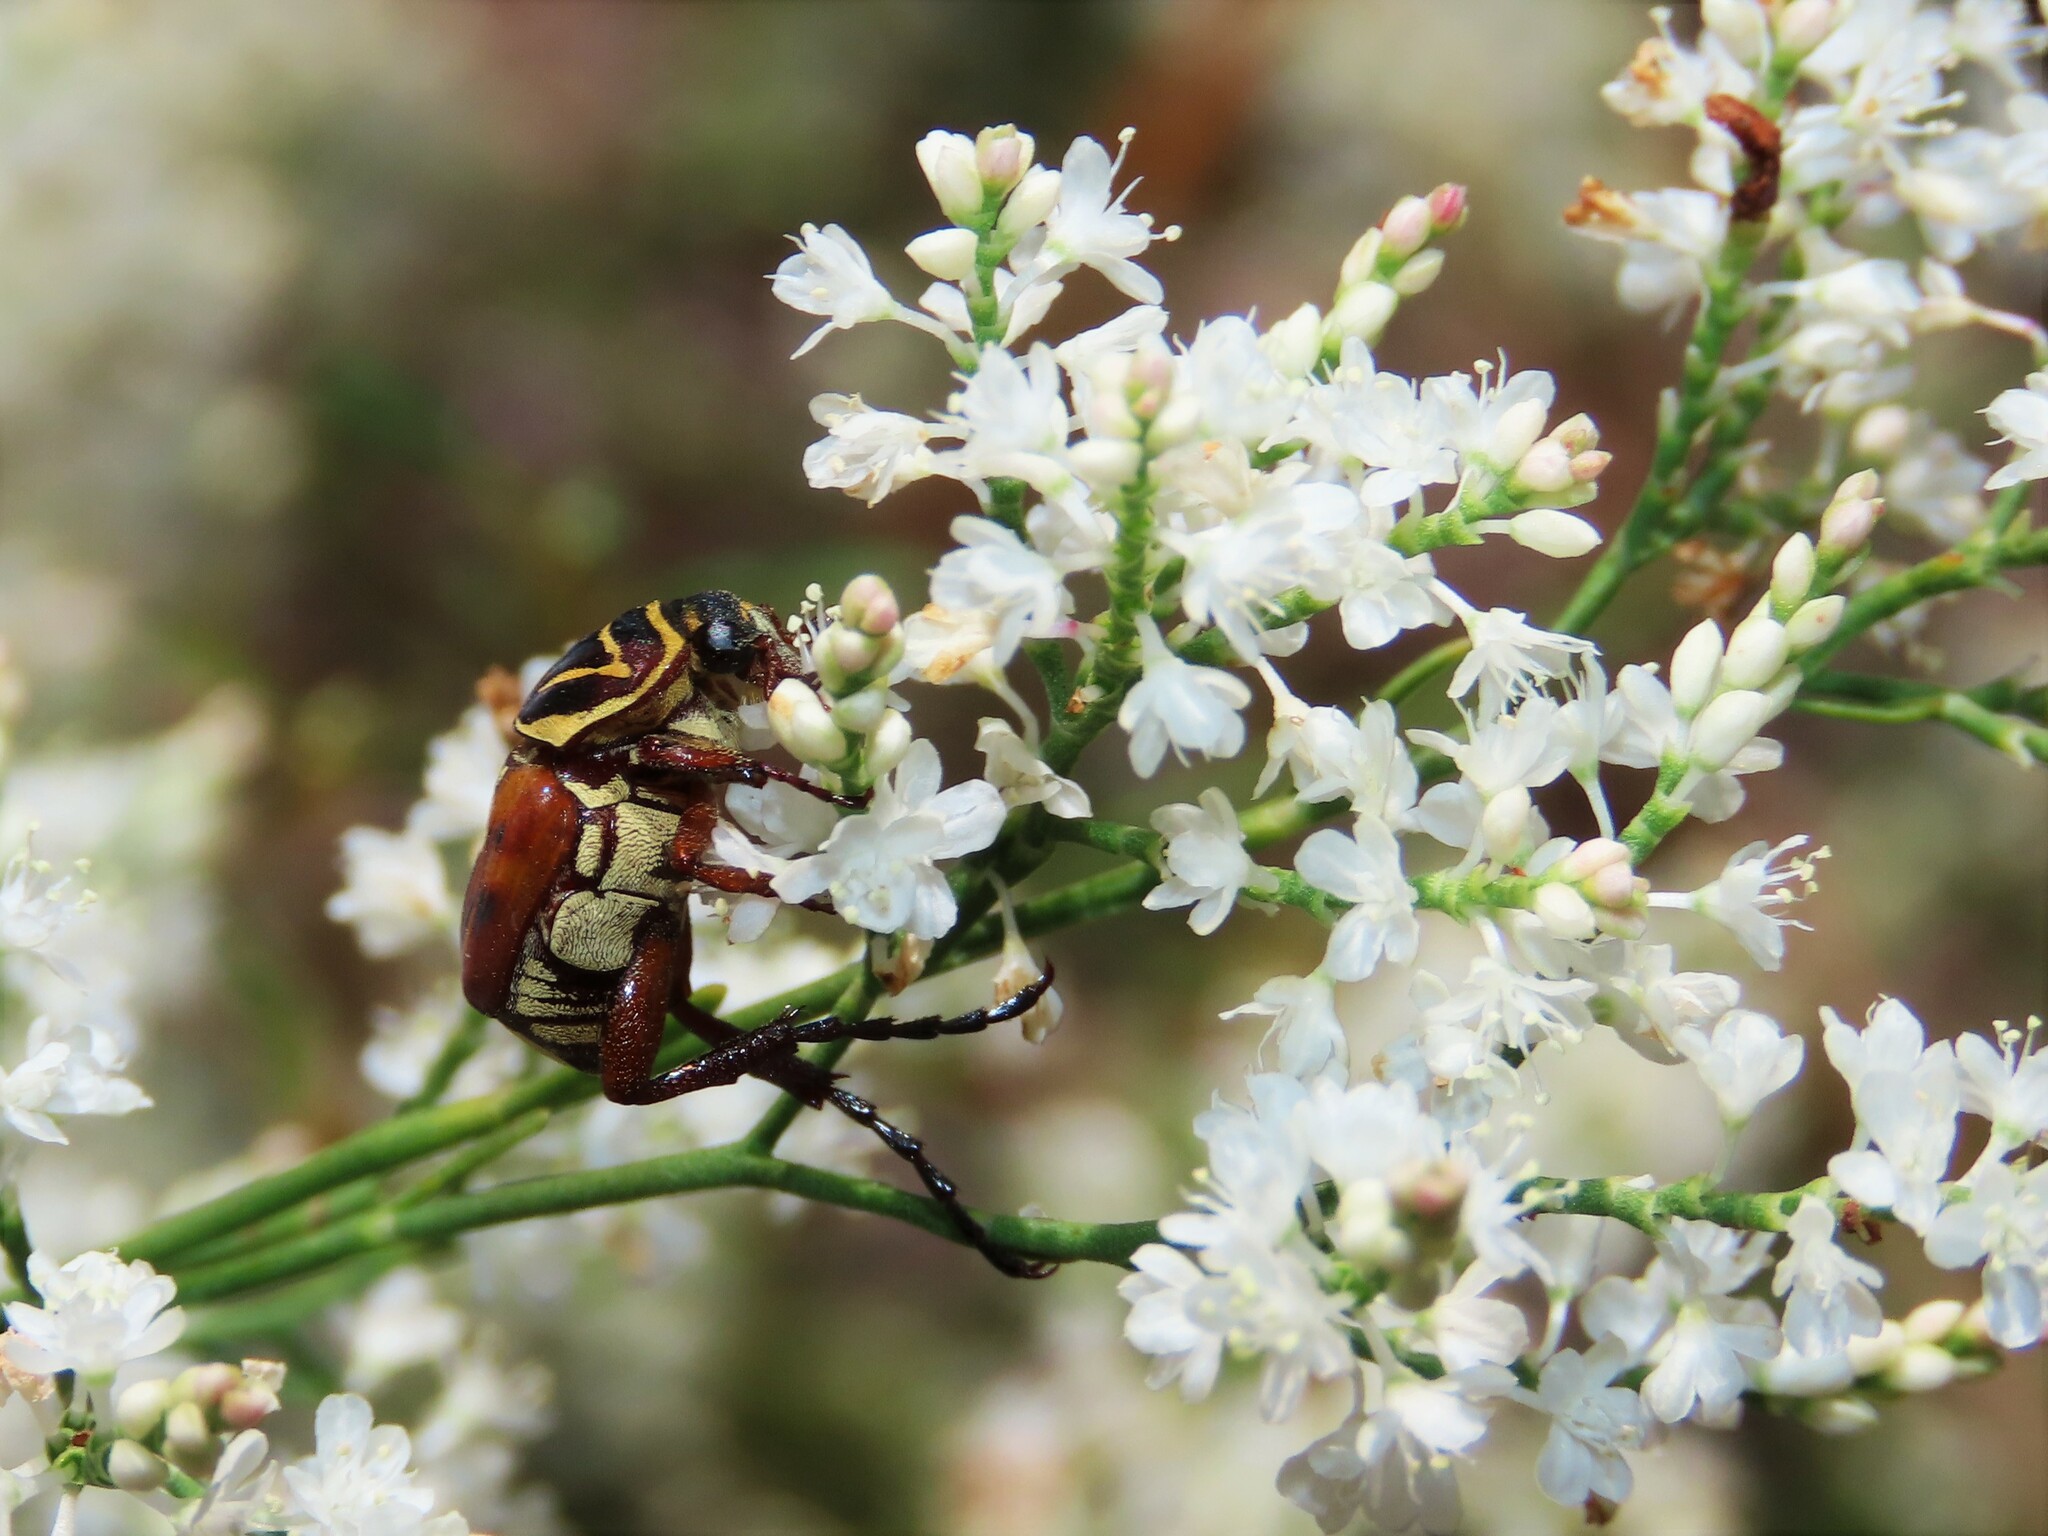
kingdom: Animalia
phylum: Arthropoda
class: Insecta
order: Coleoptera
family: Scarabaeidae
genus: Trigonopeltastes
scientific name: Trigonopeltastes delta
